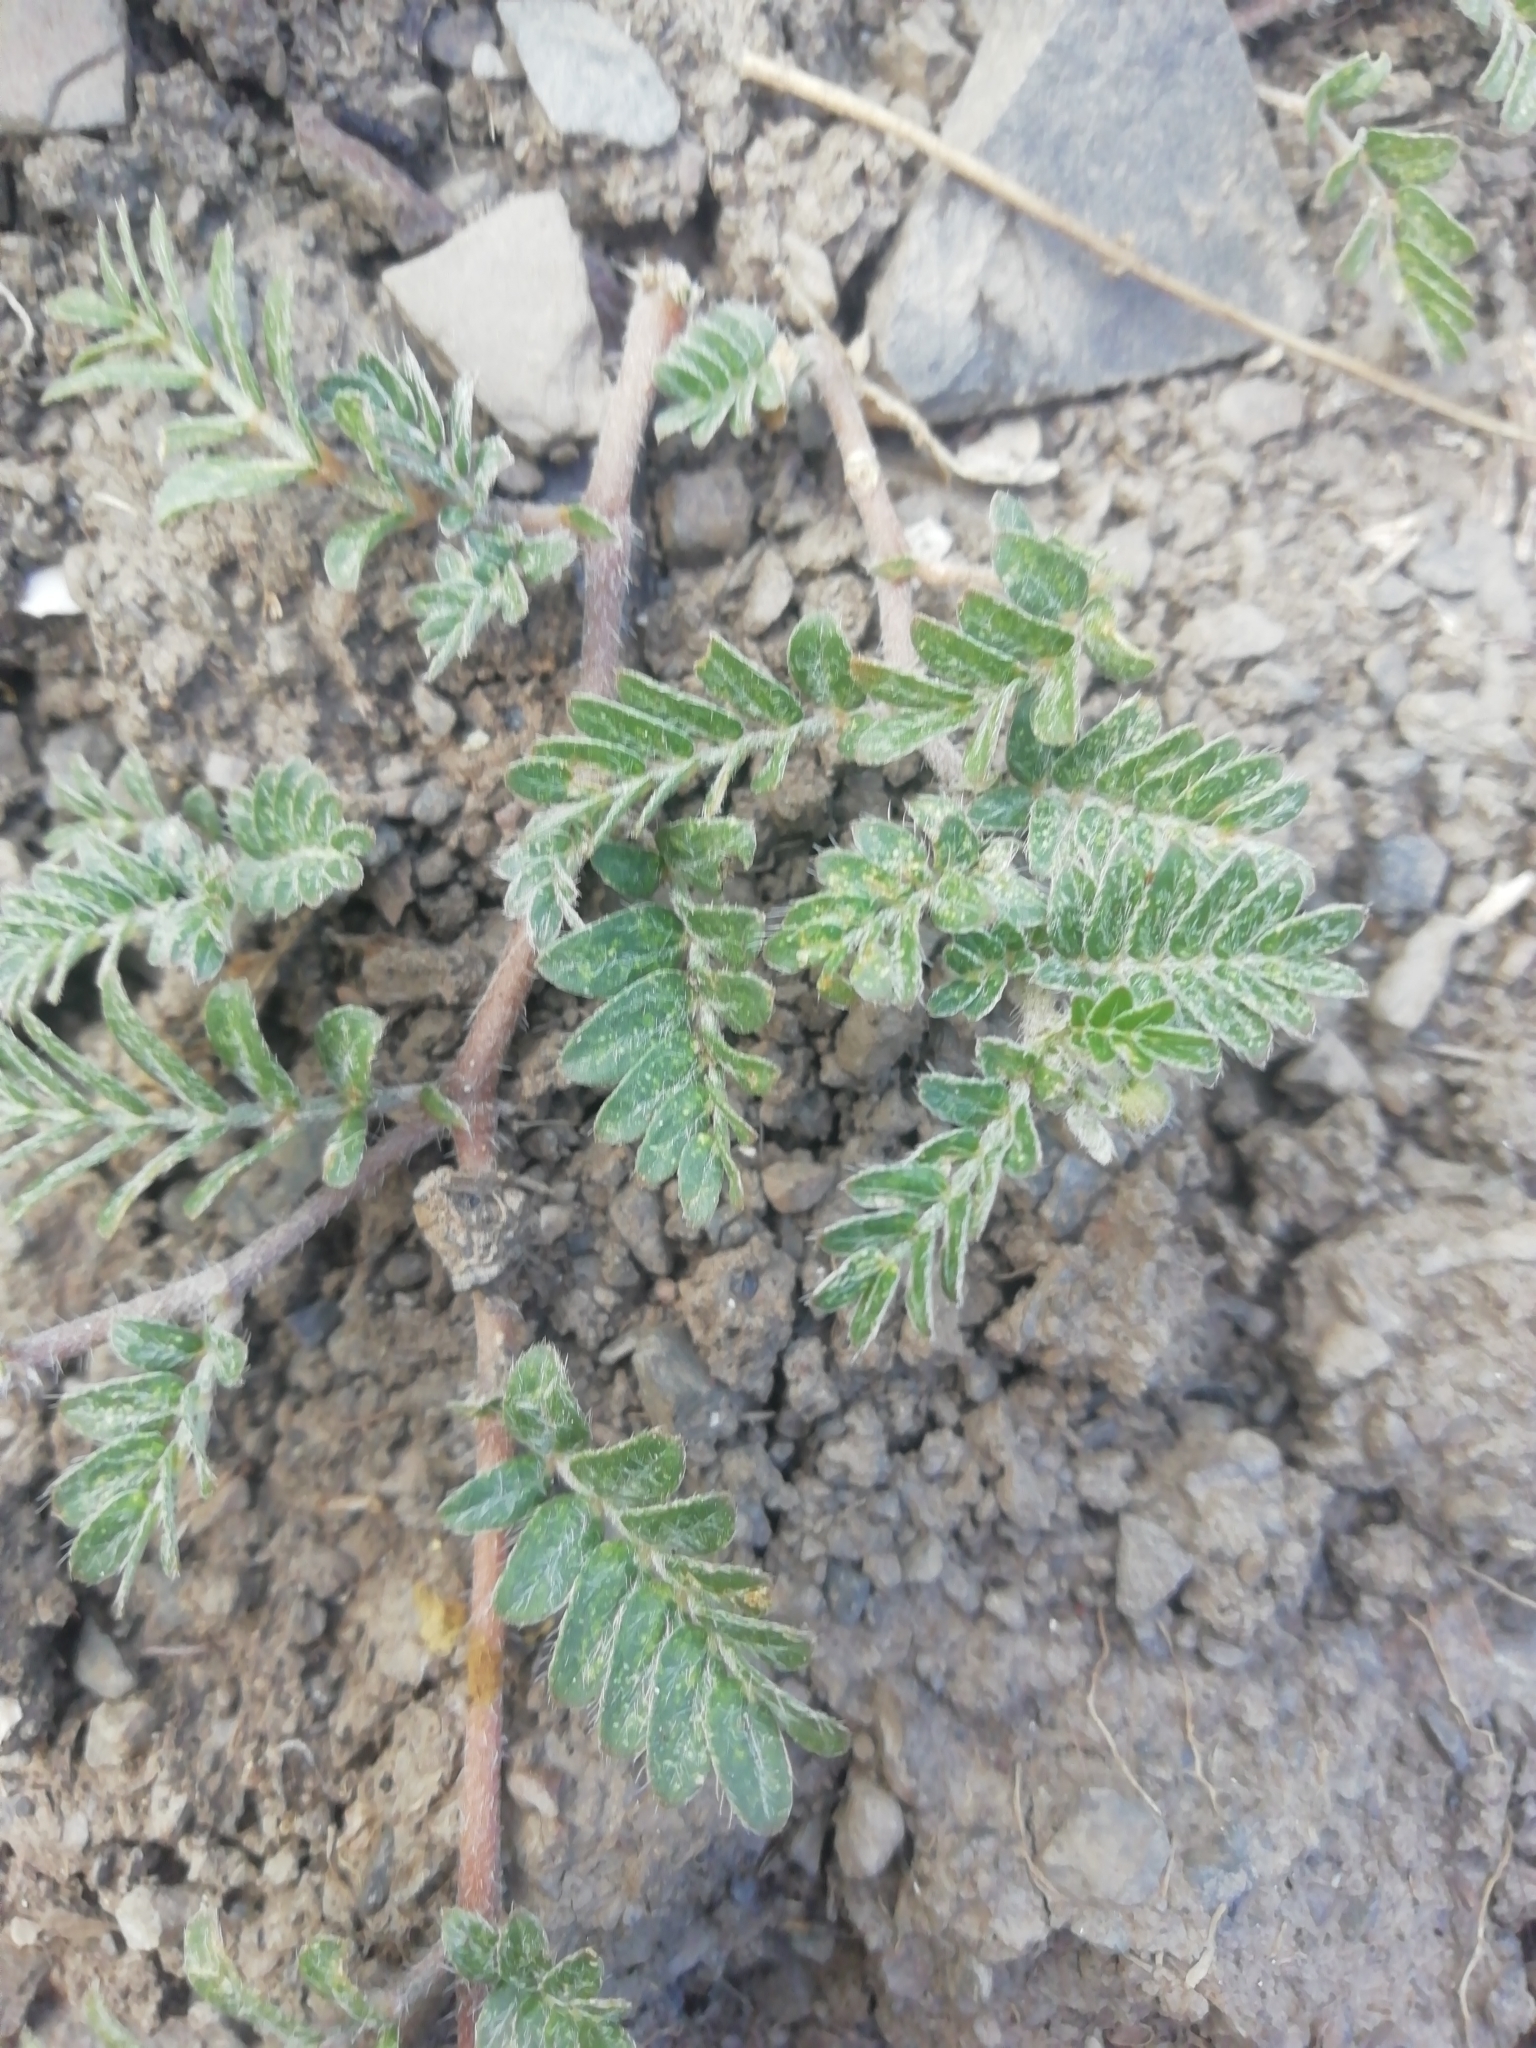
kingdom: Plantae
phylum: Tracheophyta
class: Magnoliopsida
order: Zygophyllales
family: Zygophyllaceae
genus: Tribulus
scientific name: Tribulus terrestris
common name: Puncturevine
